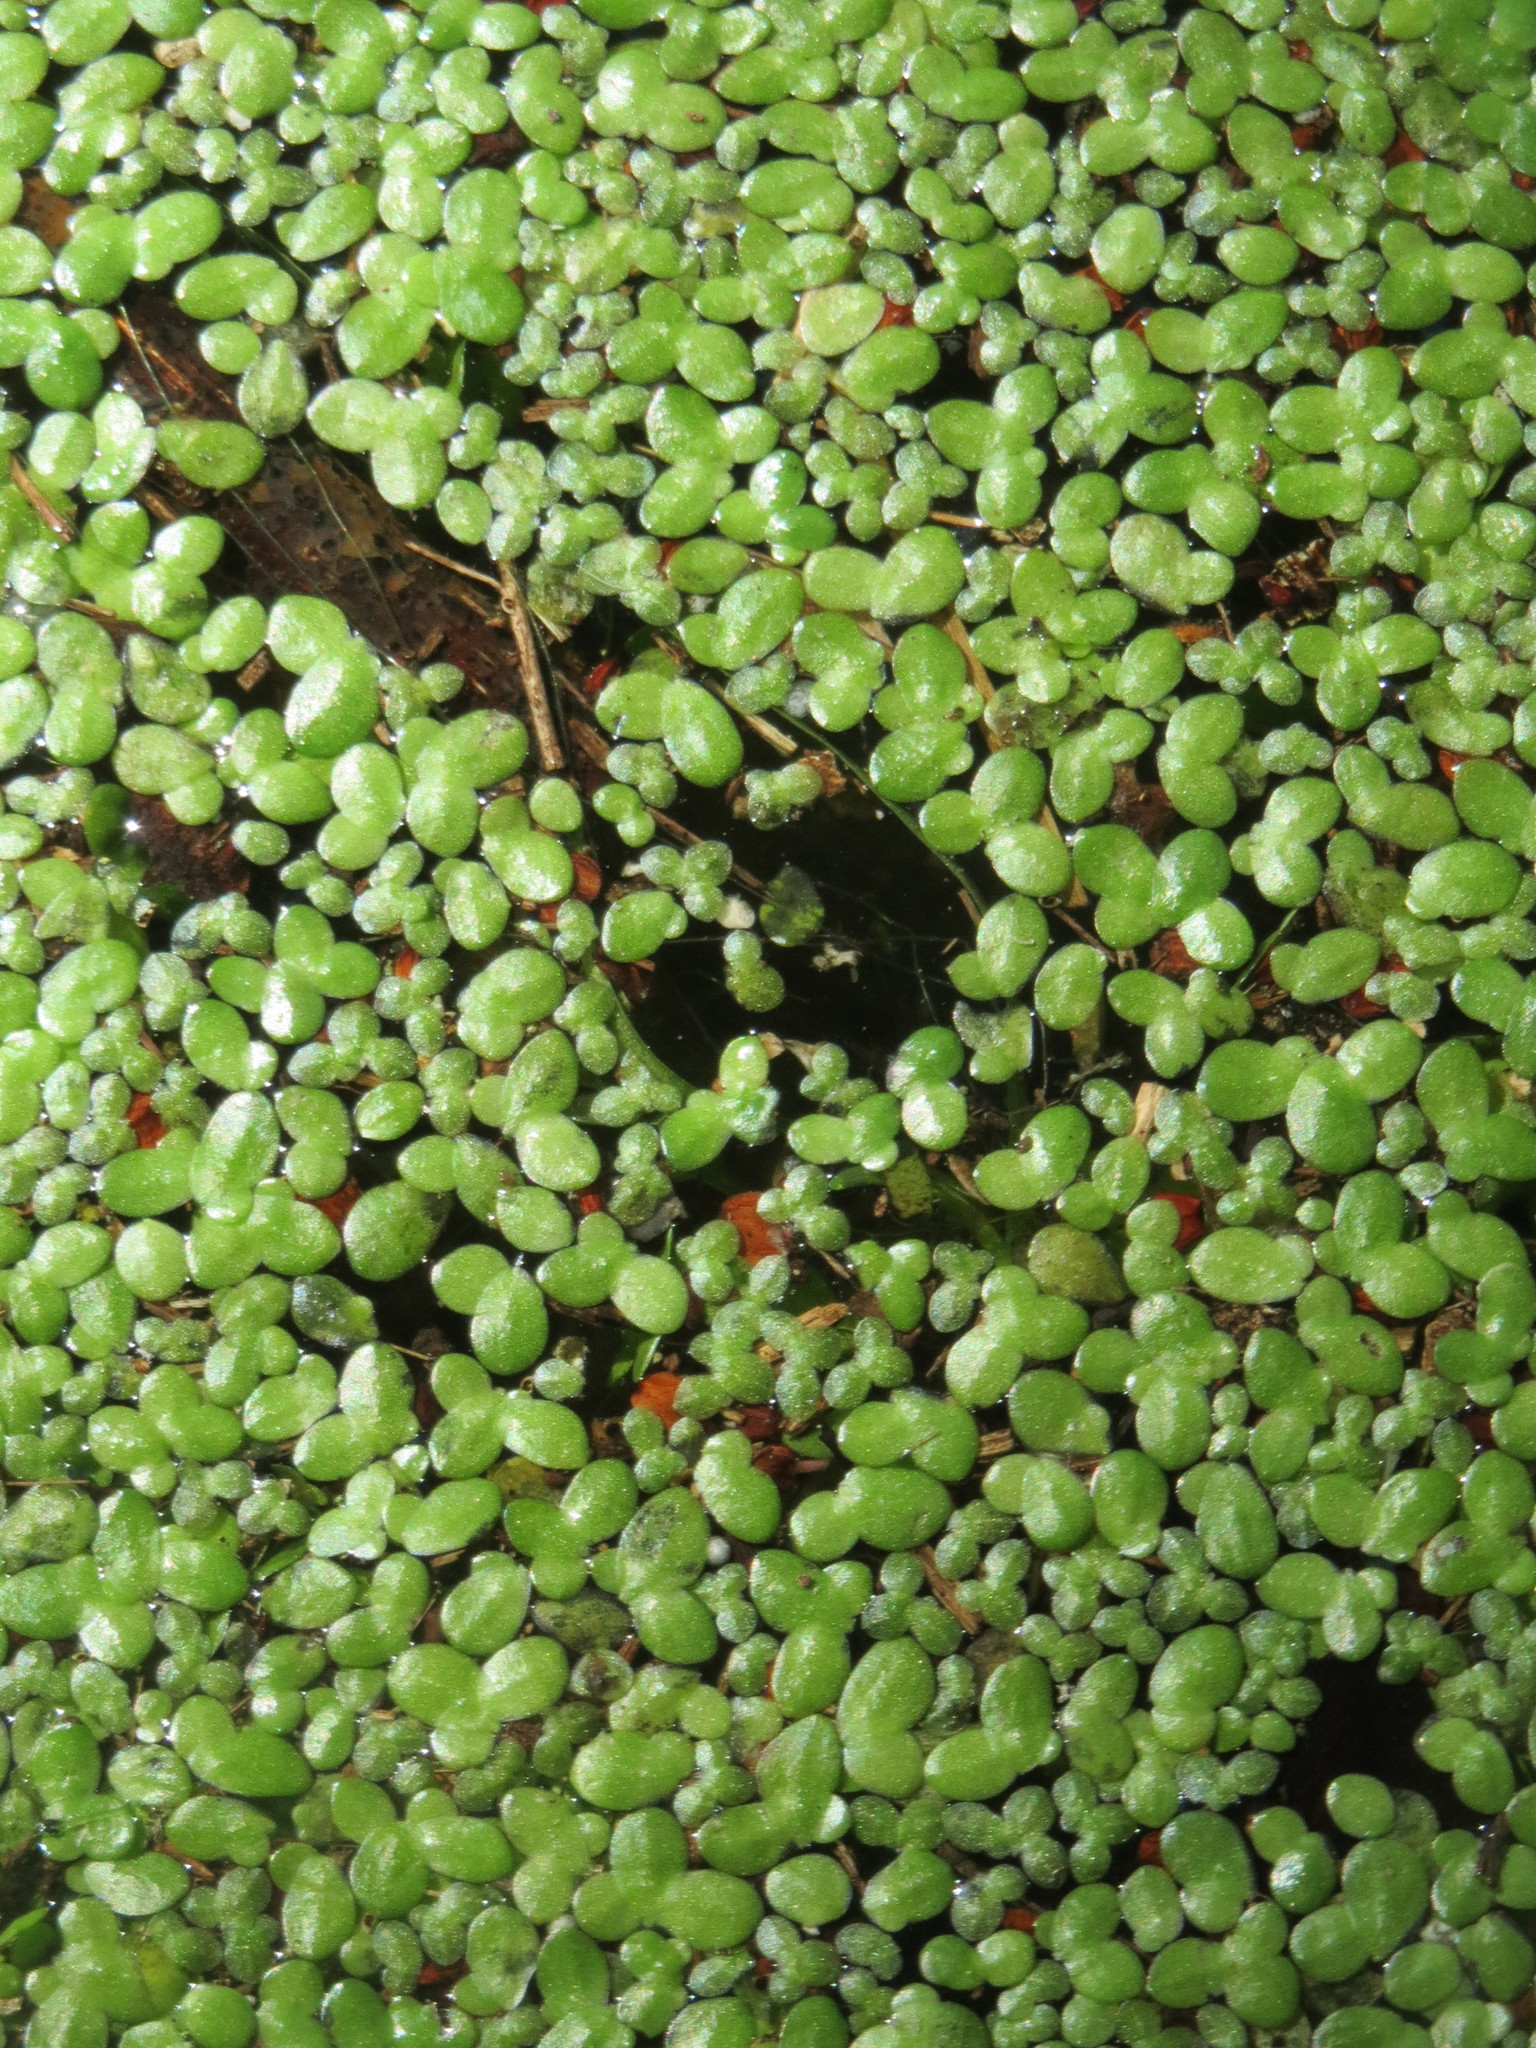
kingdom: Plantae
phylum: Tracheophyta
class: Liliopsida
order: Alismatales
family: Araceae
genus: Lemna
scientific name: Lemna minor
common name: Common duckweed
